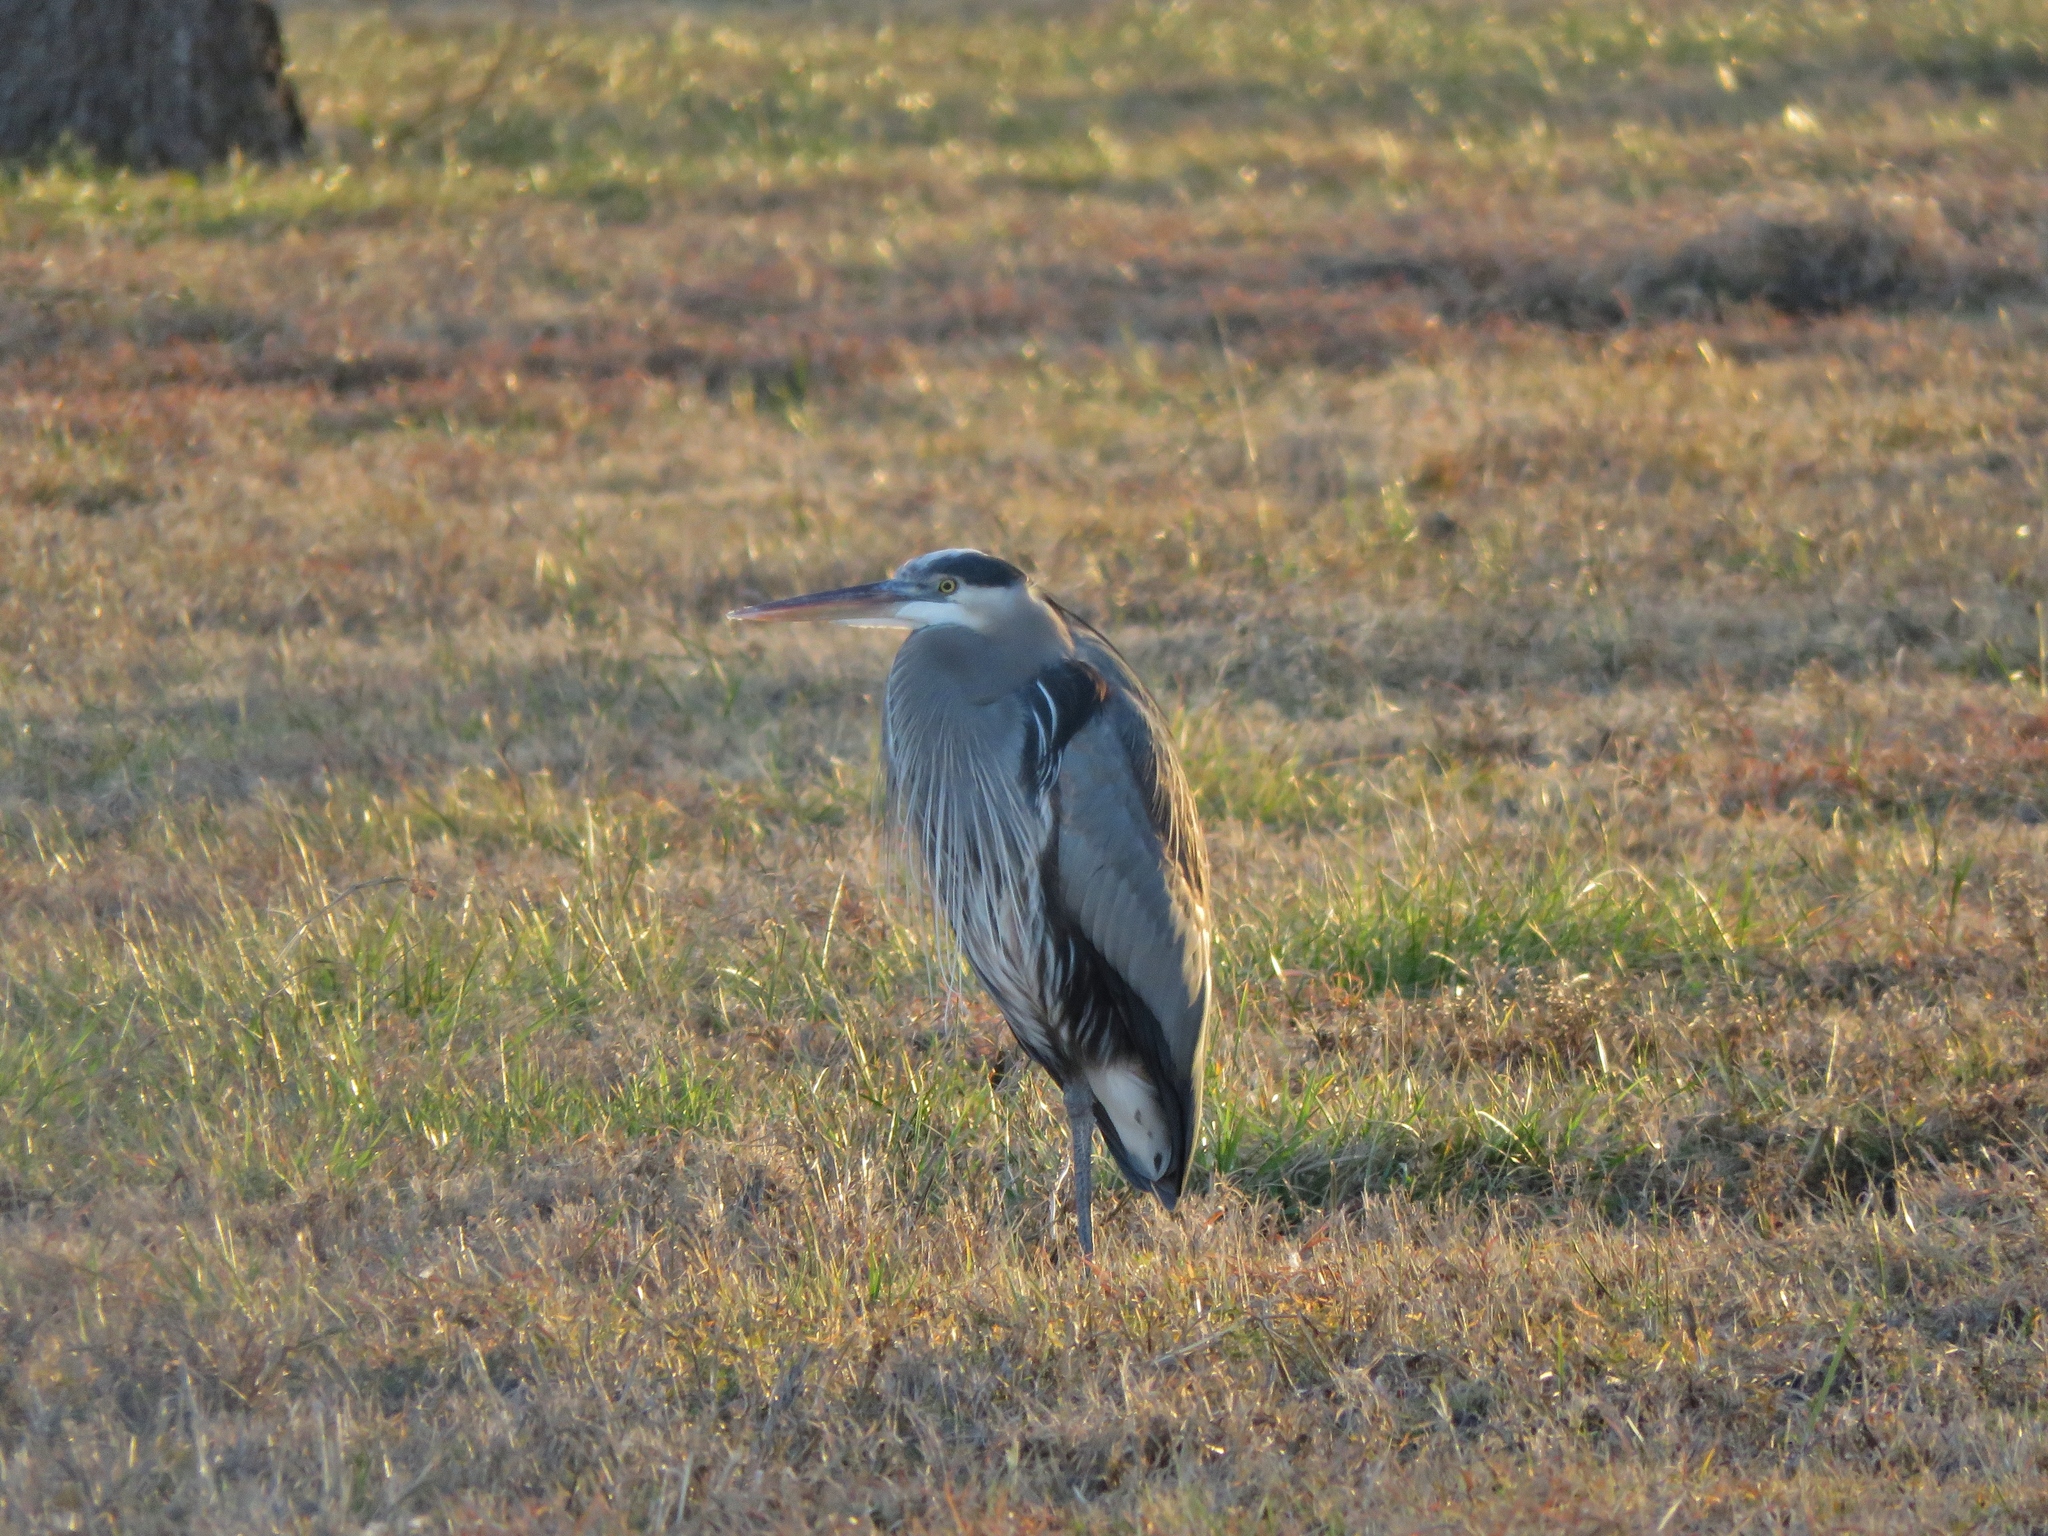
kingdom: Animalia
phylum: Chordata
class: Aves
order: Pelecaniformes
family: Ardeidae
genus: Ardea
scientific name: Ardea herodias
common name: Great blue heron
